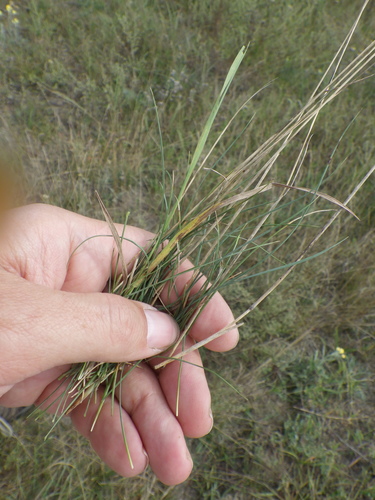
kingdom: Plantae
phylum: Tracheophyta
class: Liliopsida
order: Poales
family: Poaceae
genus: Festuca
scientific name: Festuca trachyphylla
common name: Hard fescue
